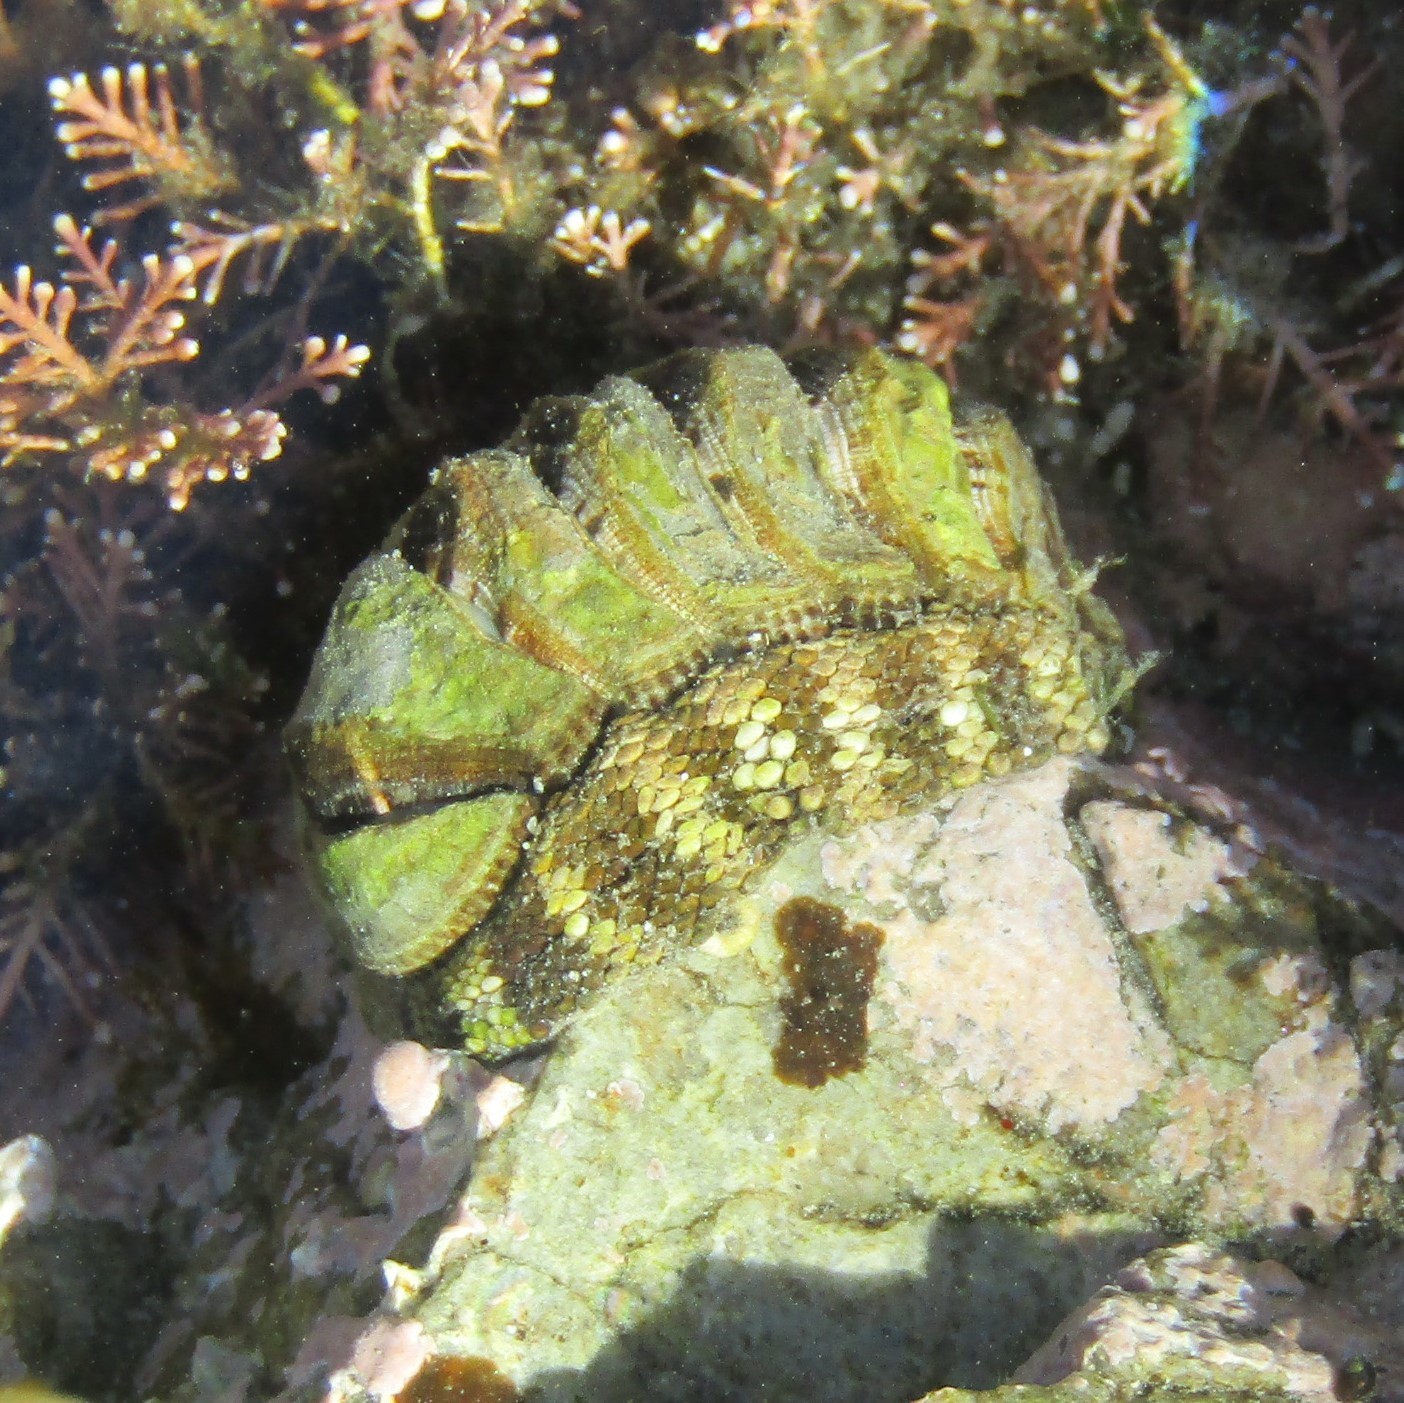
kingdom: Animalia
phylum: Mollusca
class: Polyplacophora
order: Chitonida
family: Chitonidae
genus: Sypharochiton
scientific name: Sypharochiton pelliserpentis
